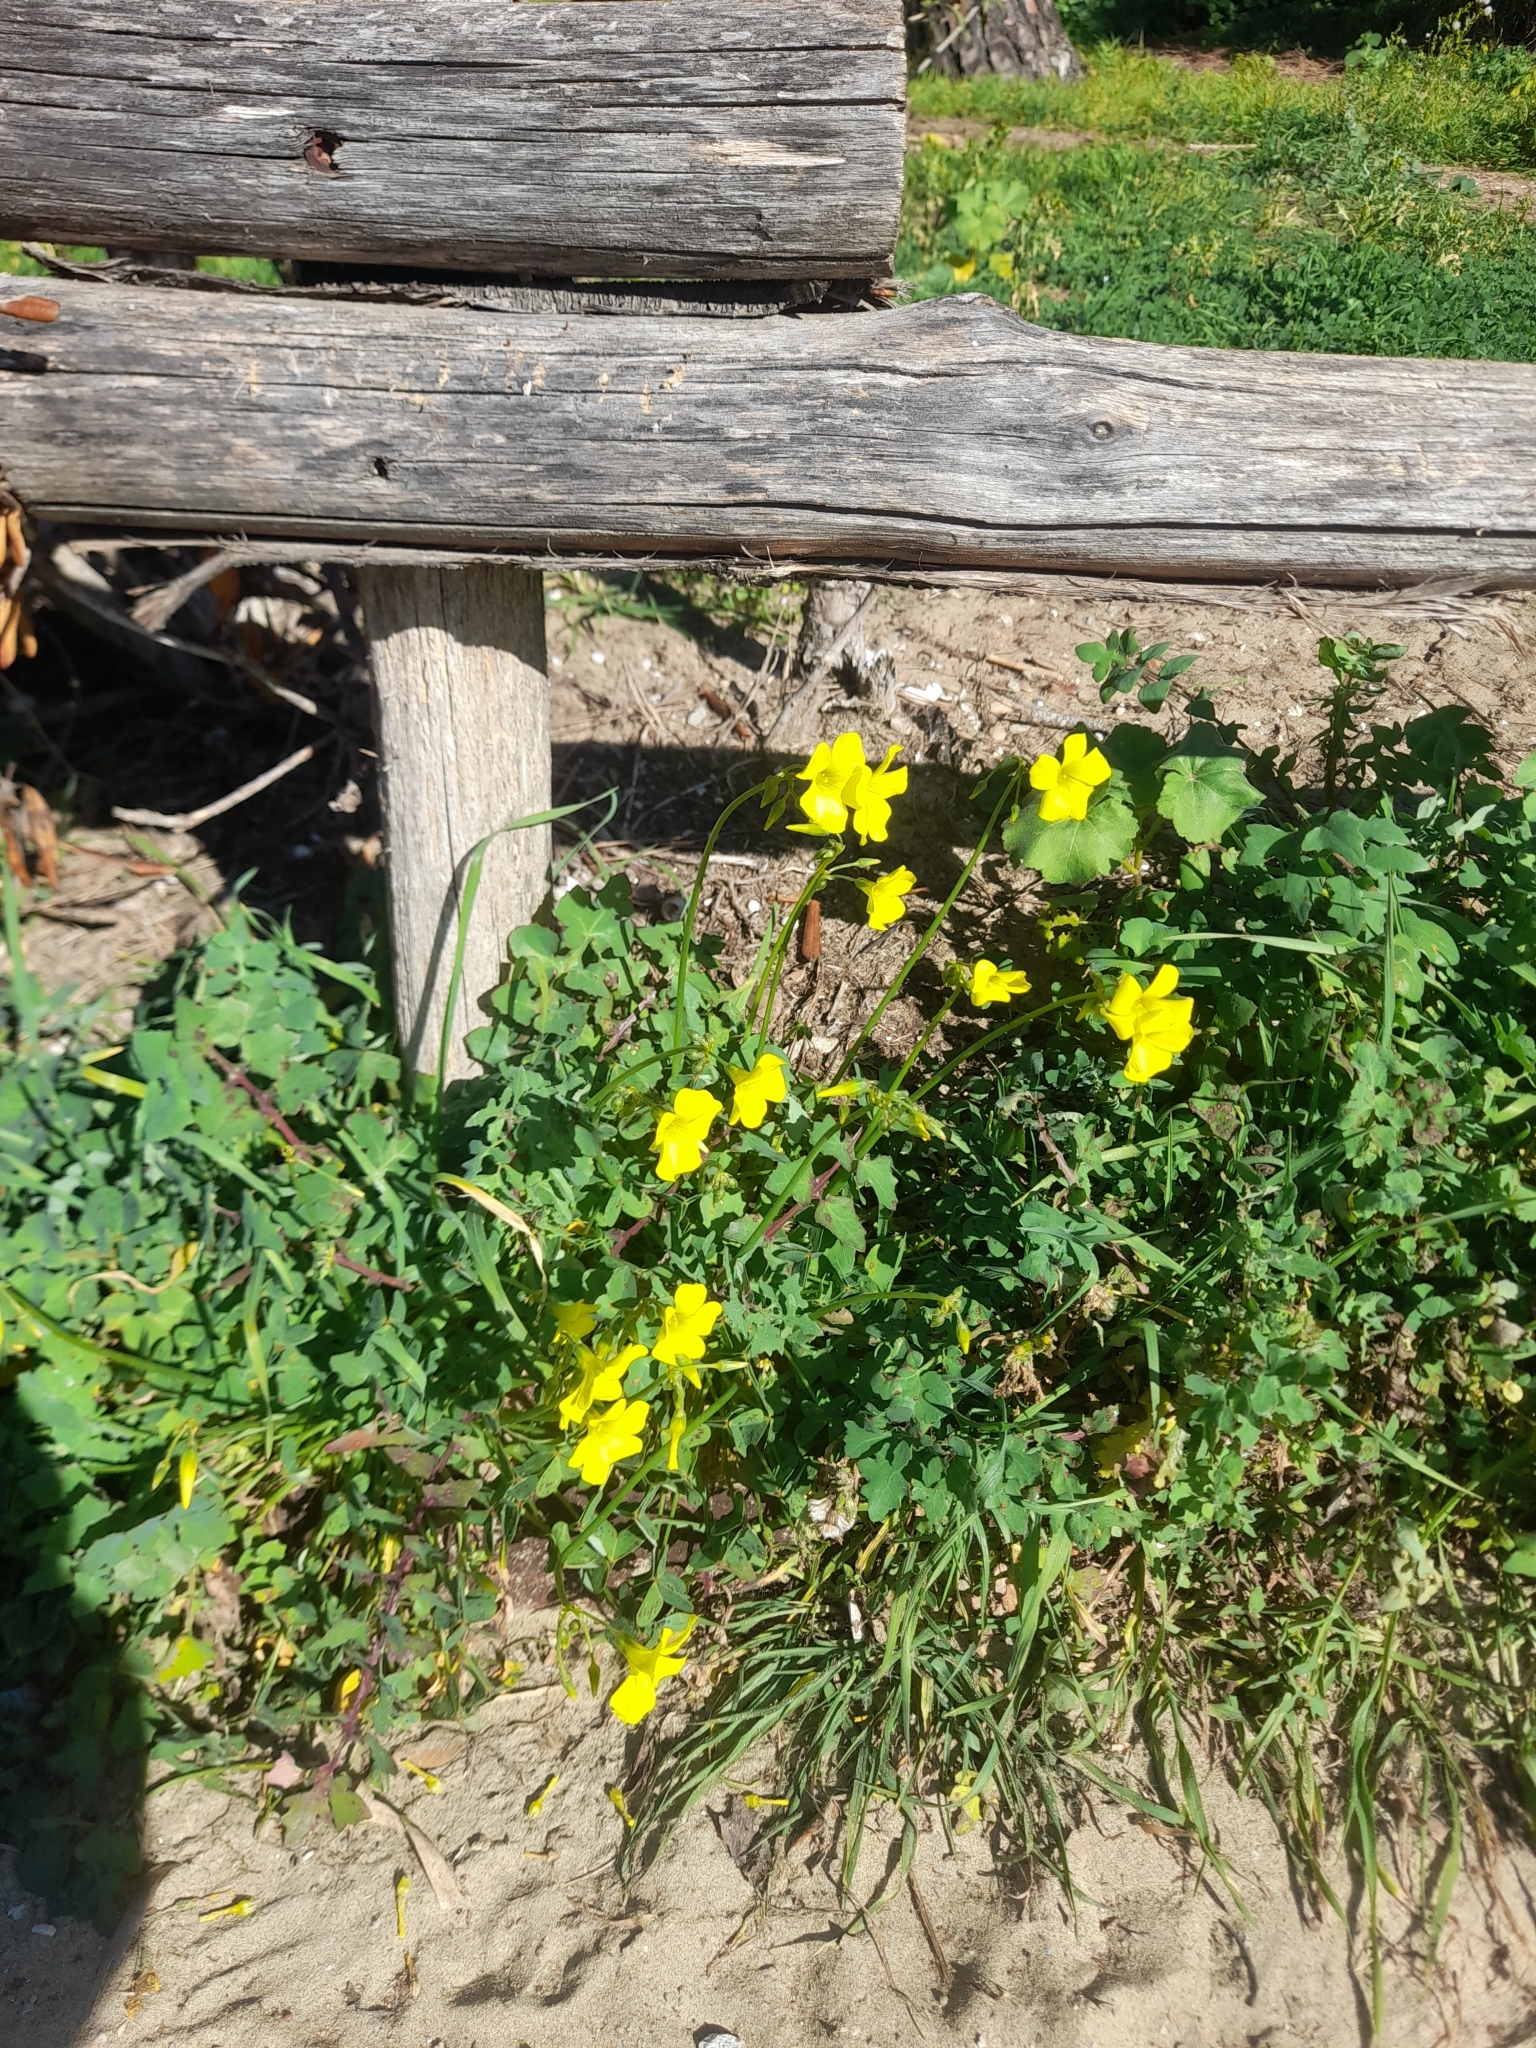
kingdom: Plantae
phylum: Tracheophyta
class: Magnoliopsida
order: Oxalidales
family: Oxalidaceae
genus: Oxalis
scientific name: Oxalis pes-caprae
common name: Bermuda-buttercup
